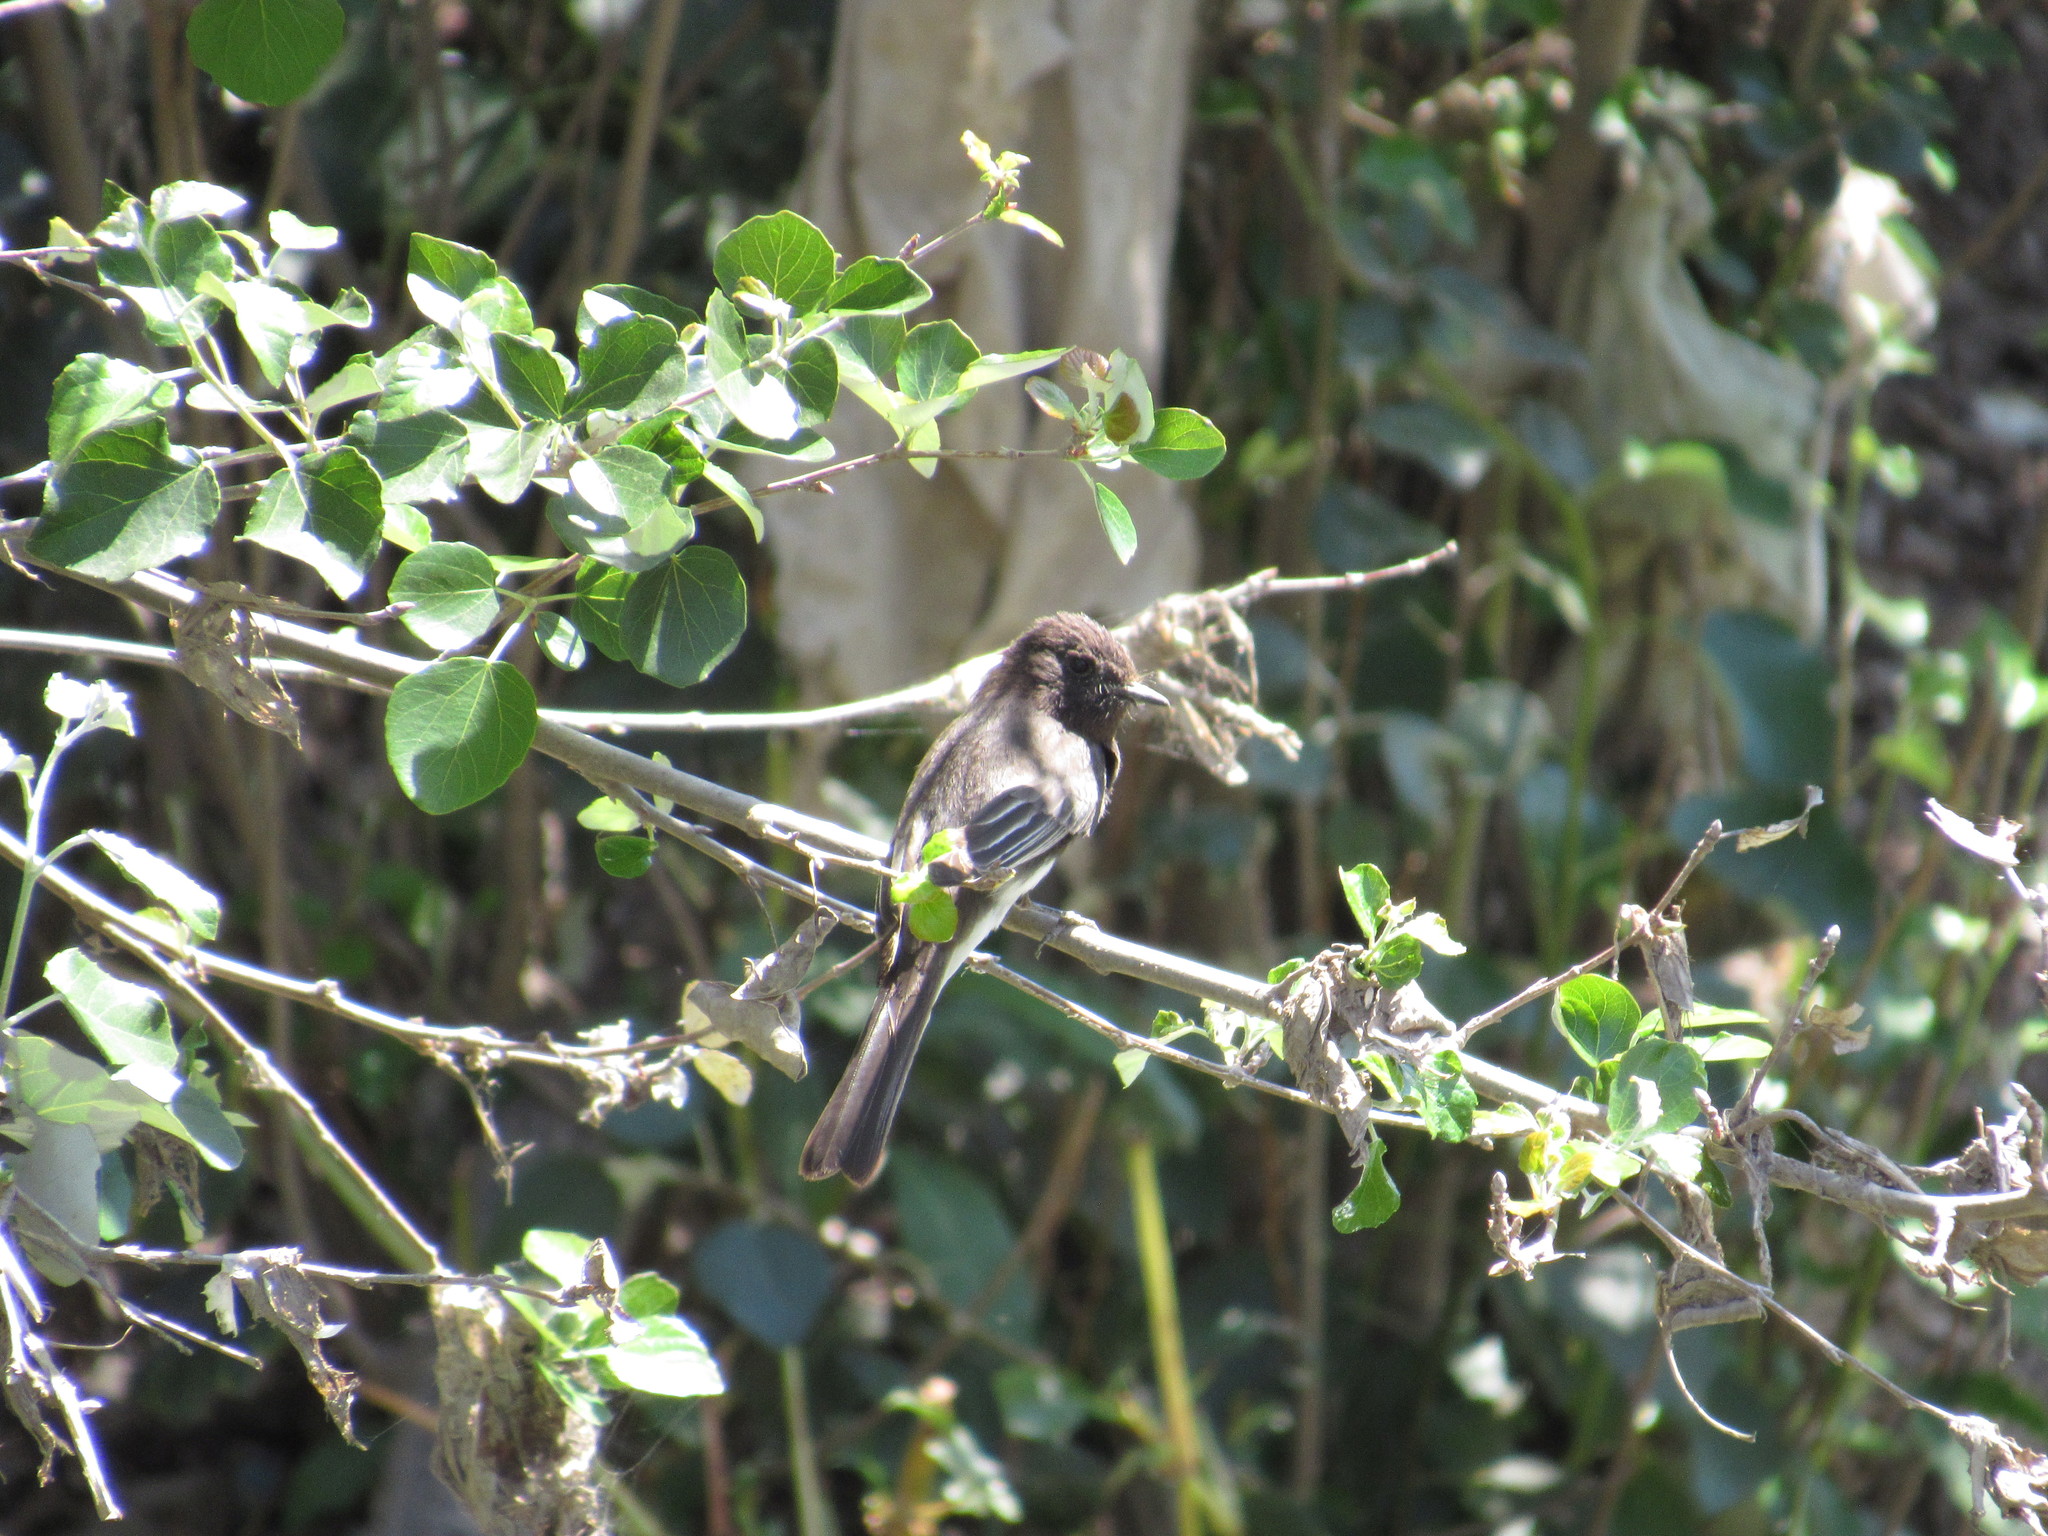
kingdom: Animalia
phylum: Chordata
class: Aves
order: Passeriformes
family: Tyrannidae
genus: Sayornis
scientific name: Sayornis nigricans
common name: Black phoebe
